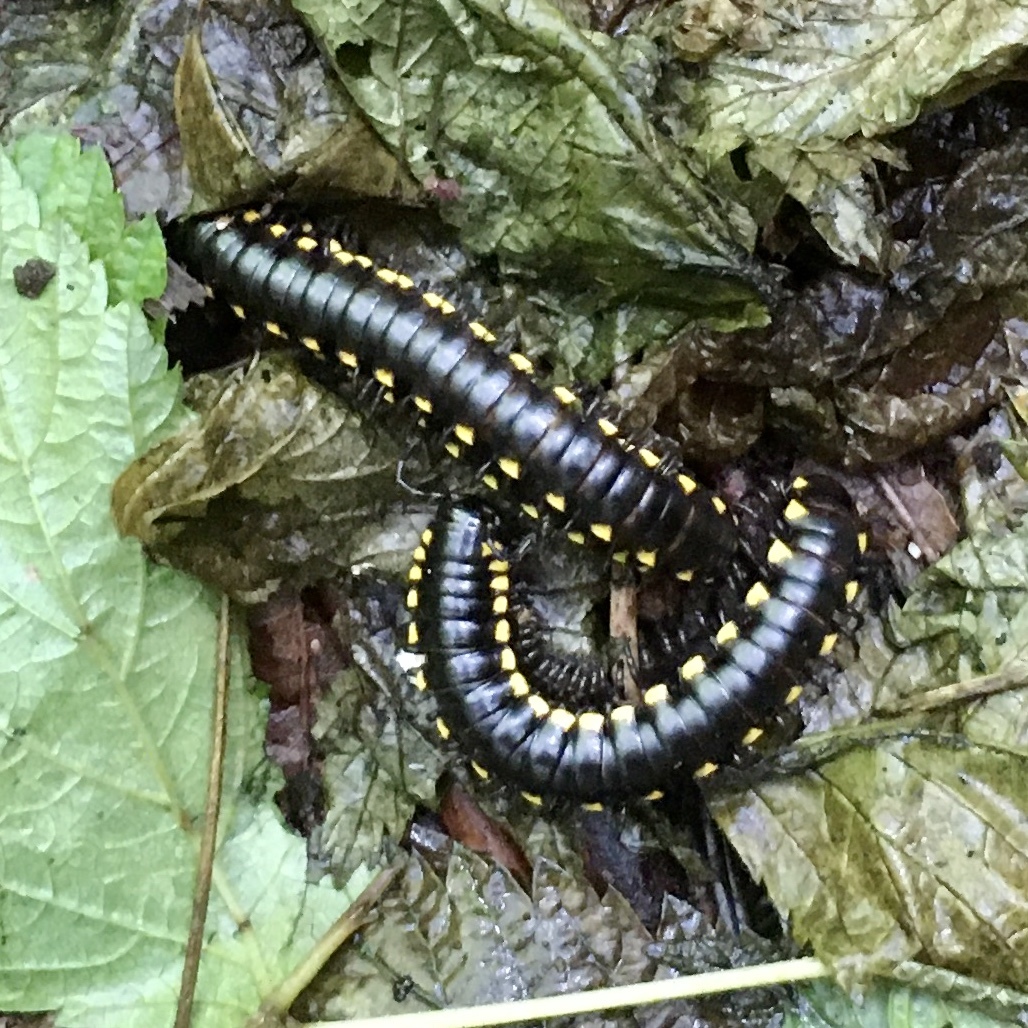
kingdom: Animalia
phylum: Arthropoda
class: Diplopoda
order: Polydesmida
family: Xystodesmidae
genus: Harpaphe
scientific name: Harpaphe haydeniana
